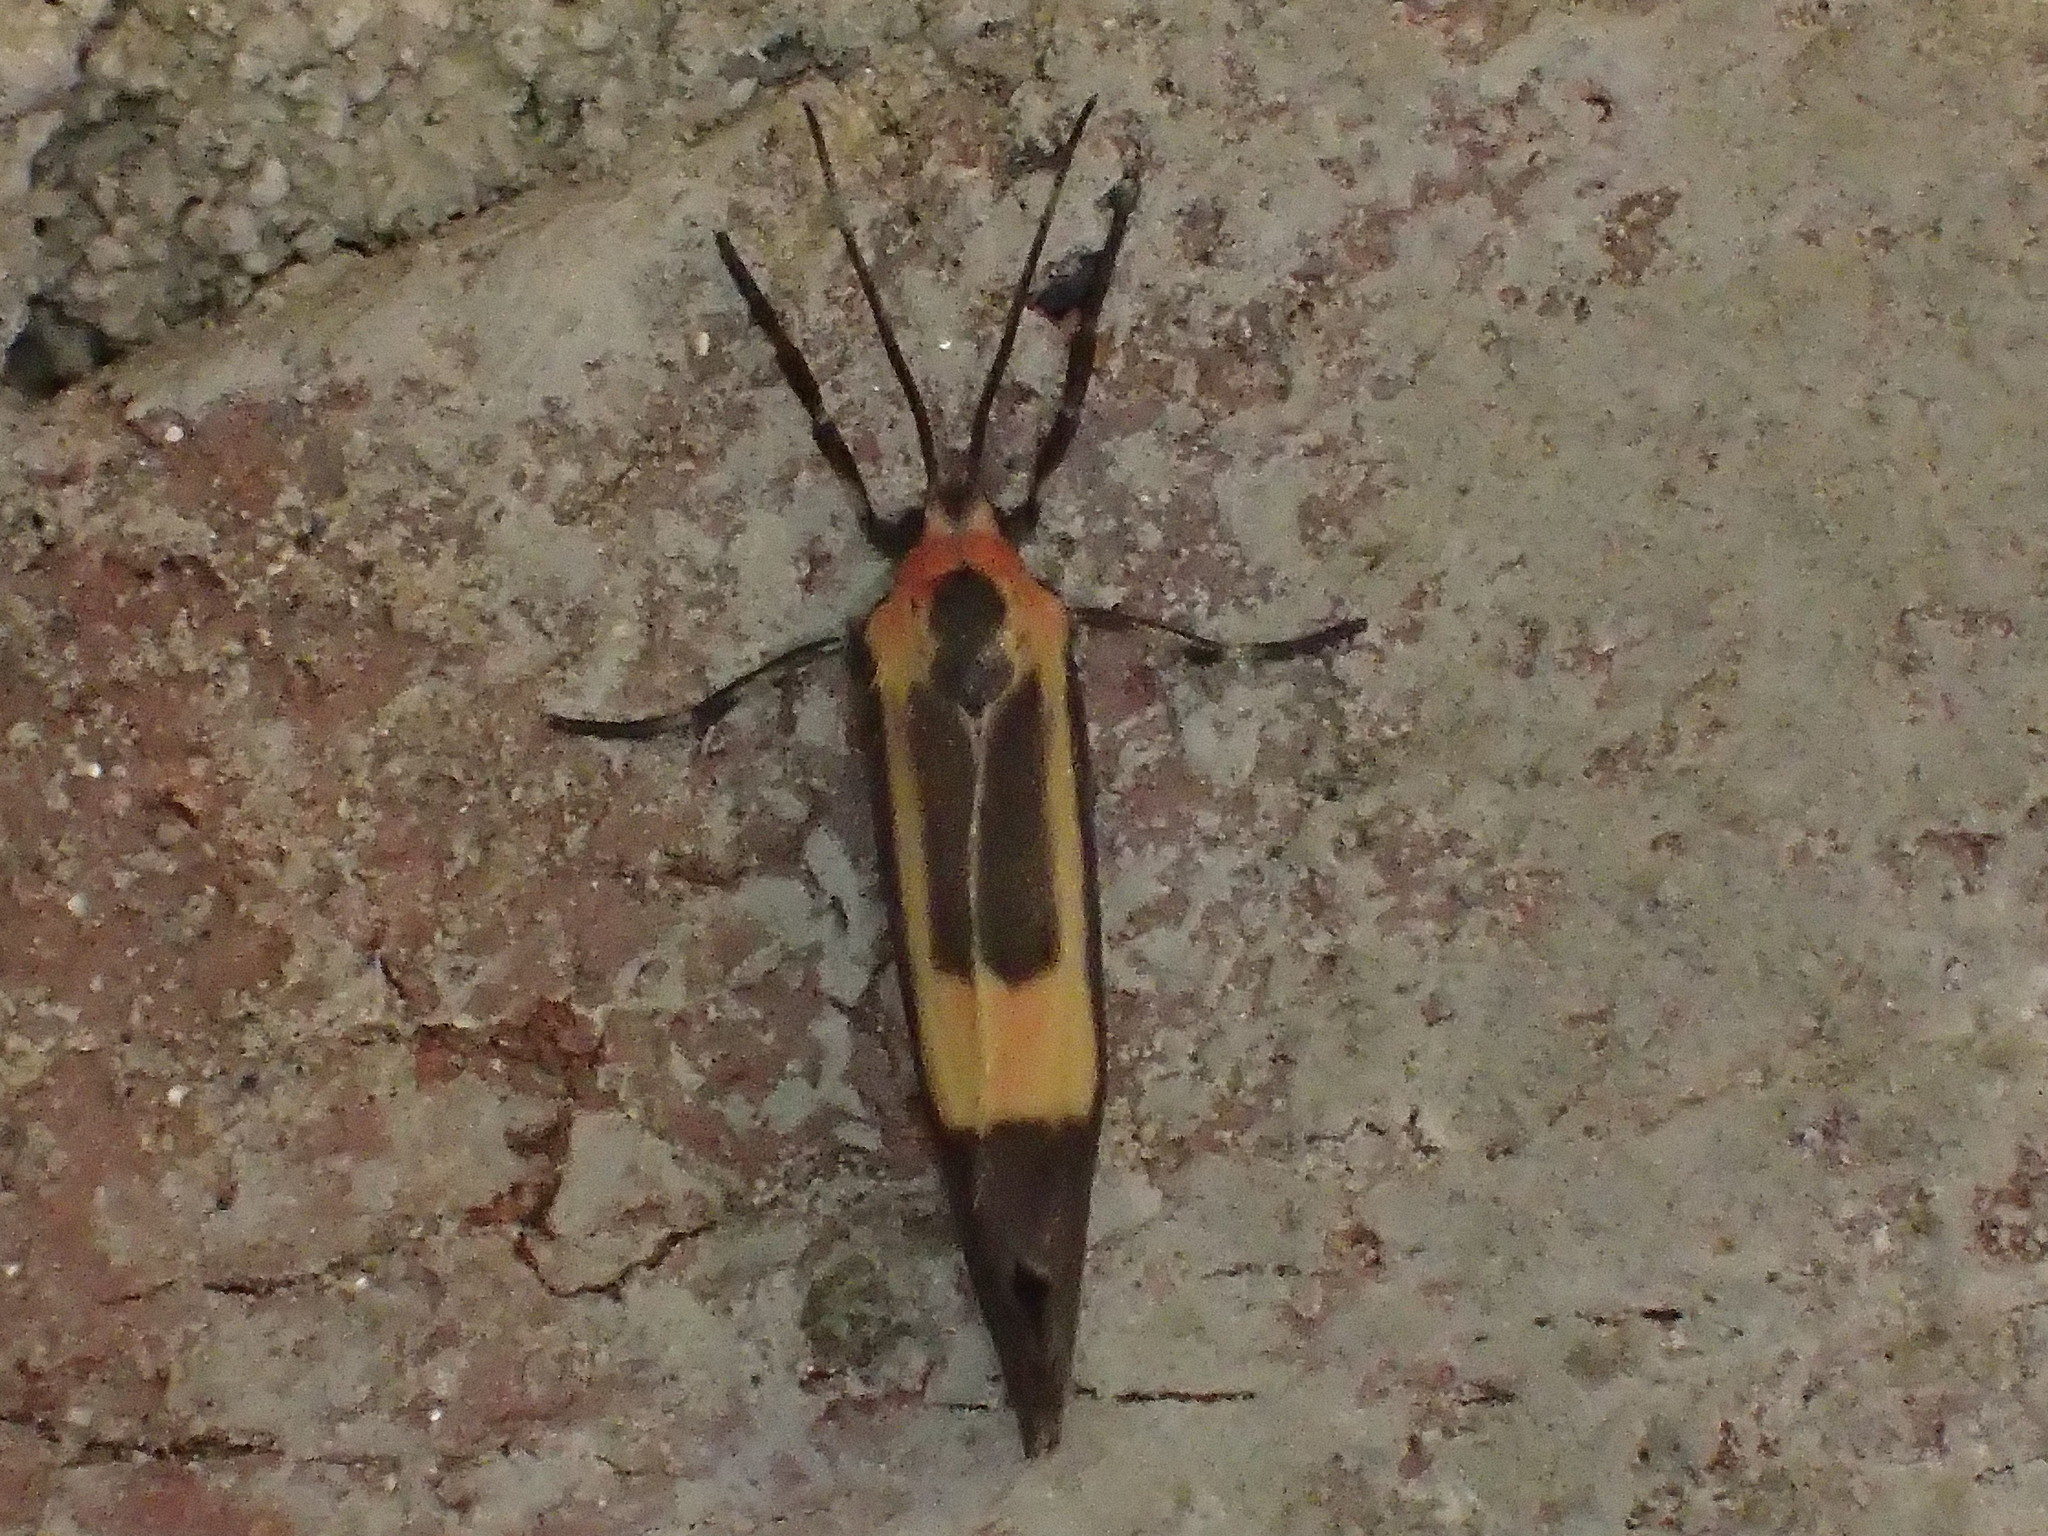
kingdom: Animalia
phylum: Arthropoda
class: Insecta
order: Lepidoptera
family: Erebidae
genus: Cisthene
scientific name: Cisthene
